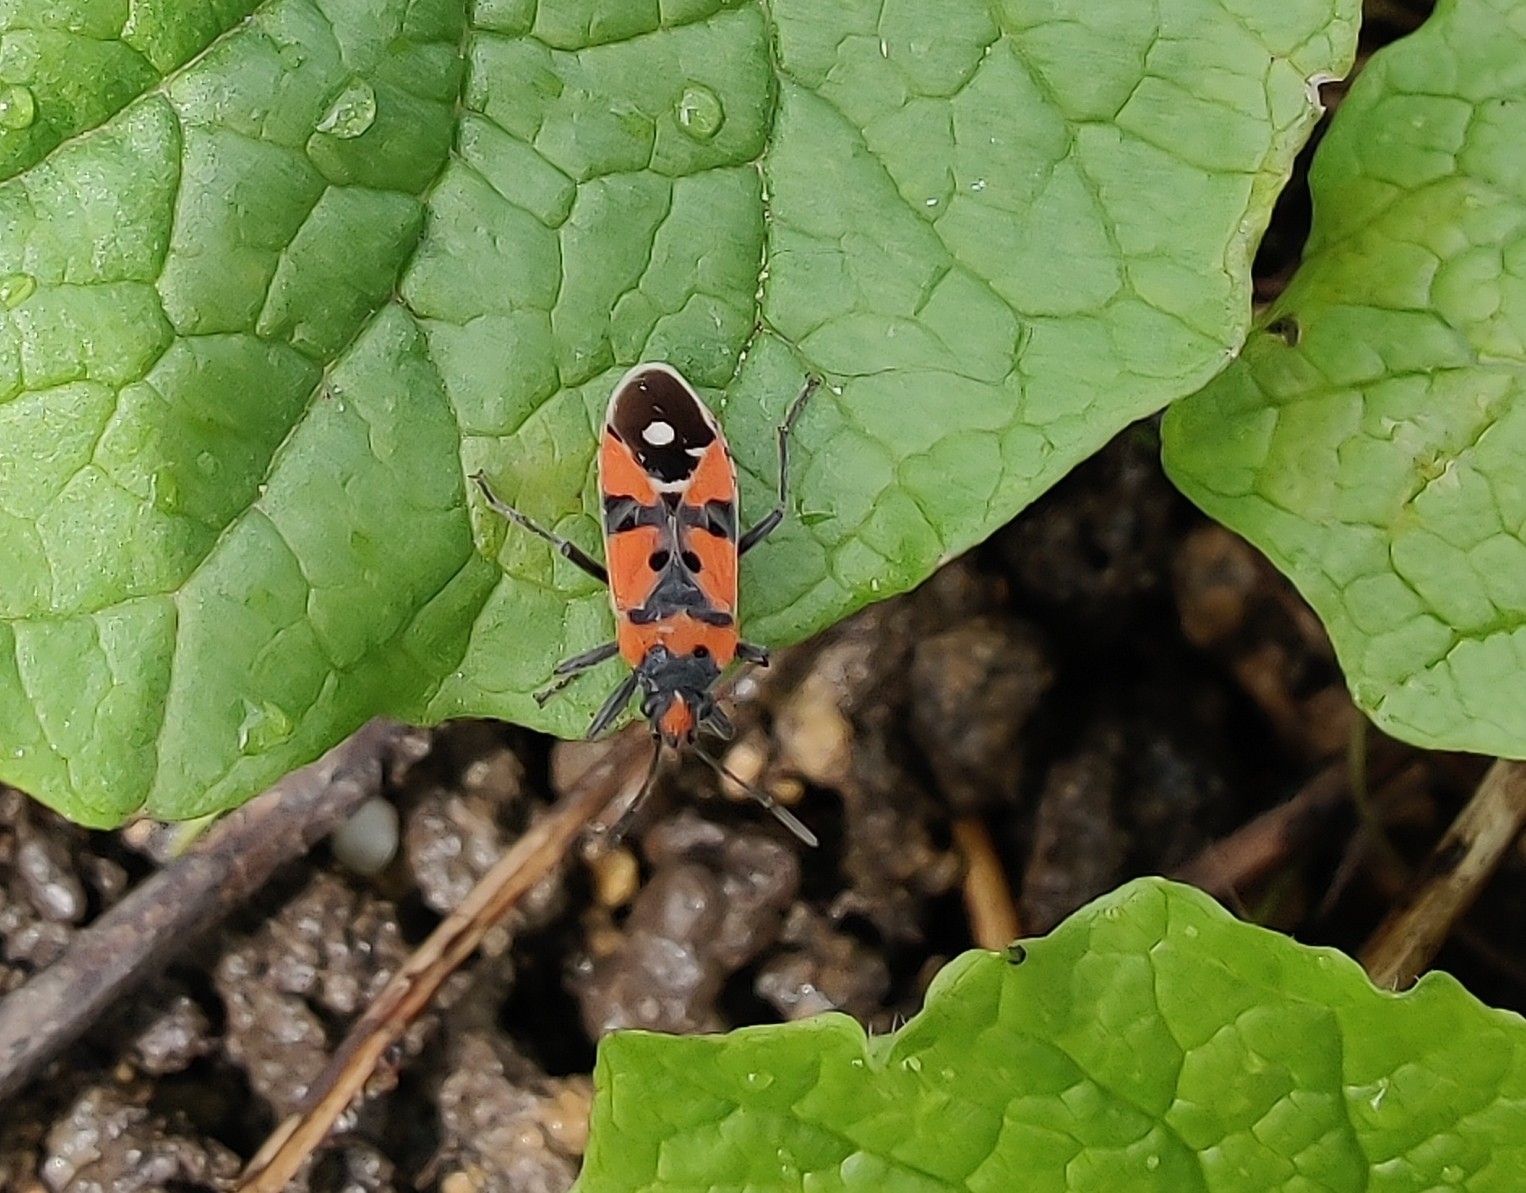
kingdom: Animalia
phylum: Arthropoda
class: Insecta
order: Hemiptera
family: Lygaeidae
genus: Lygaeus
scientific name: Lygaeus equestris
